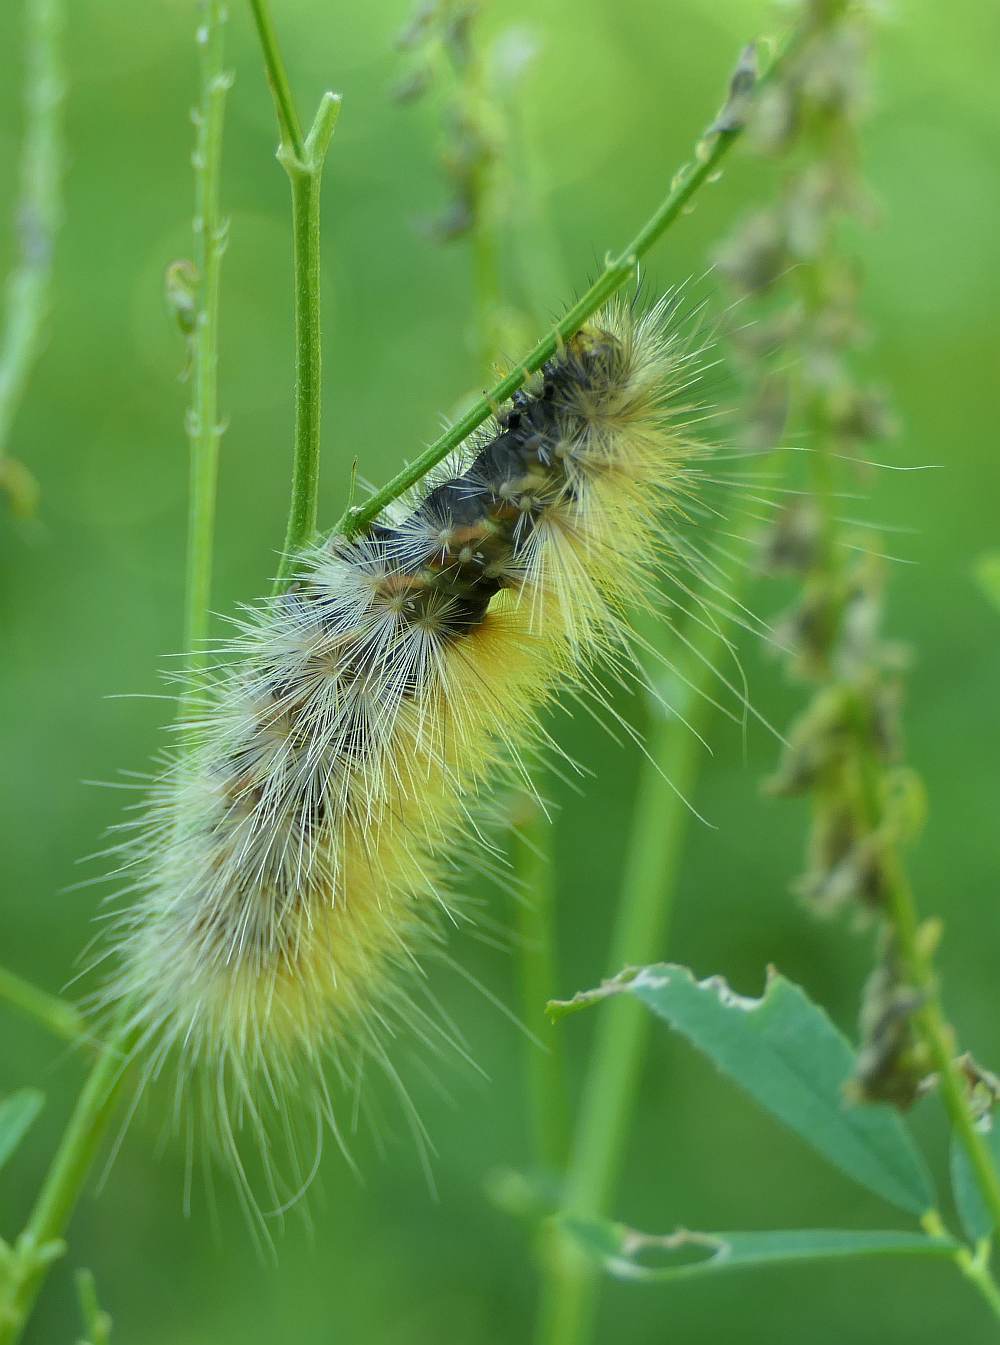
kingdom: Animalia
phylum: Arthropoda
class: Insecta
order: Lepidoptera
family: Erebidae
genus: Spilosoma
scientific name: Spilosoma virginica
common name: Virginia tiger moth
